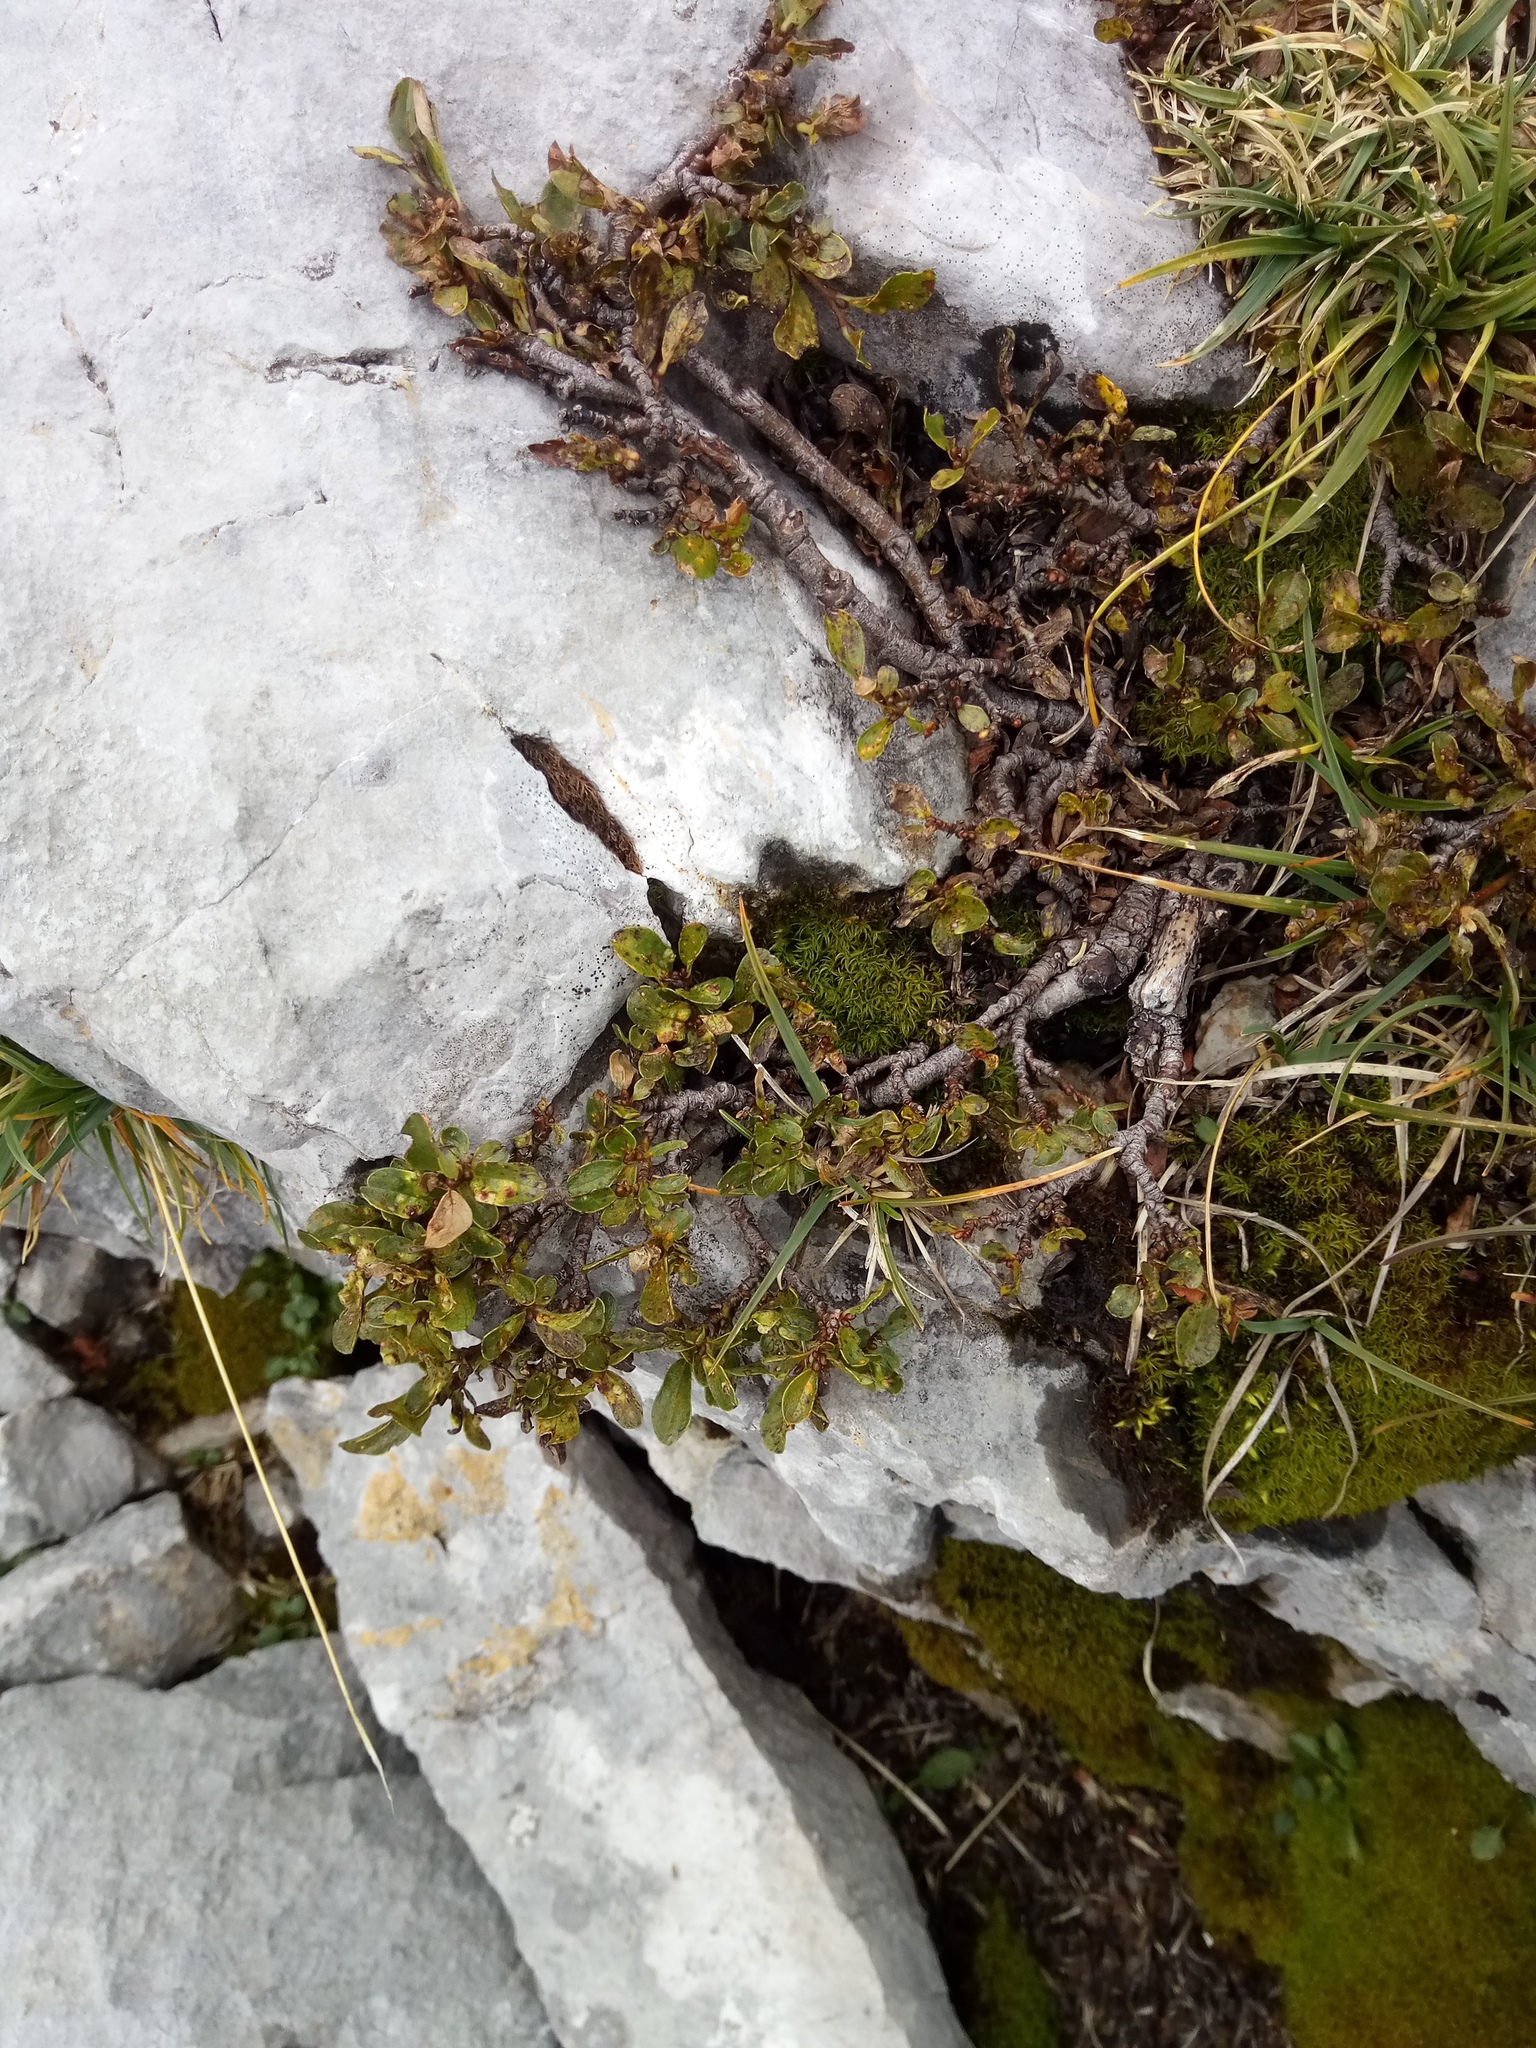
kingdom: Plantae
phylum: Tracheophyta
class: Magnoliopsida
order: Malpighiales
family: Salicaceae
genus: Salix
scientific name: Salix retusa
